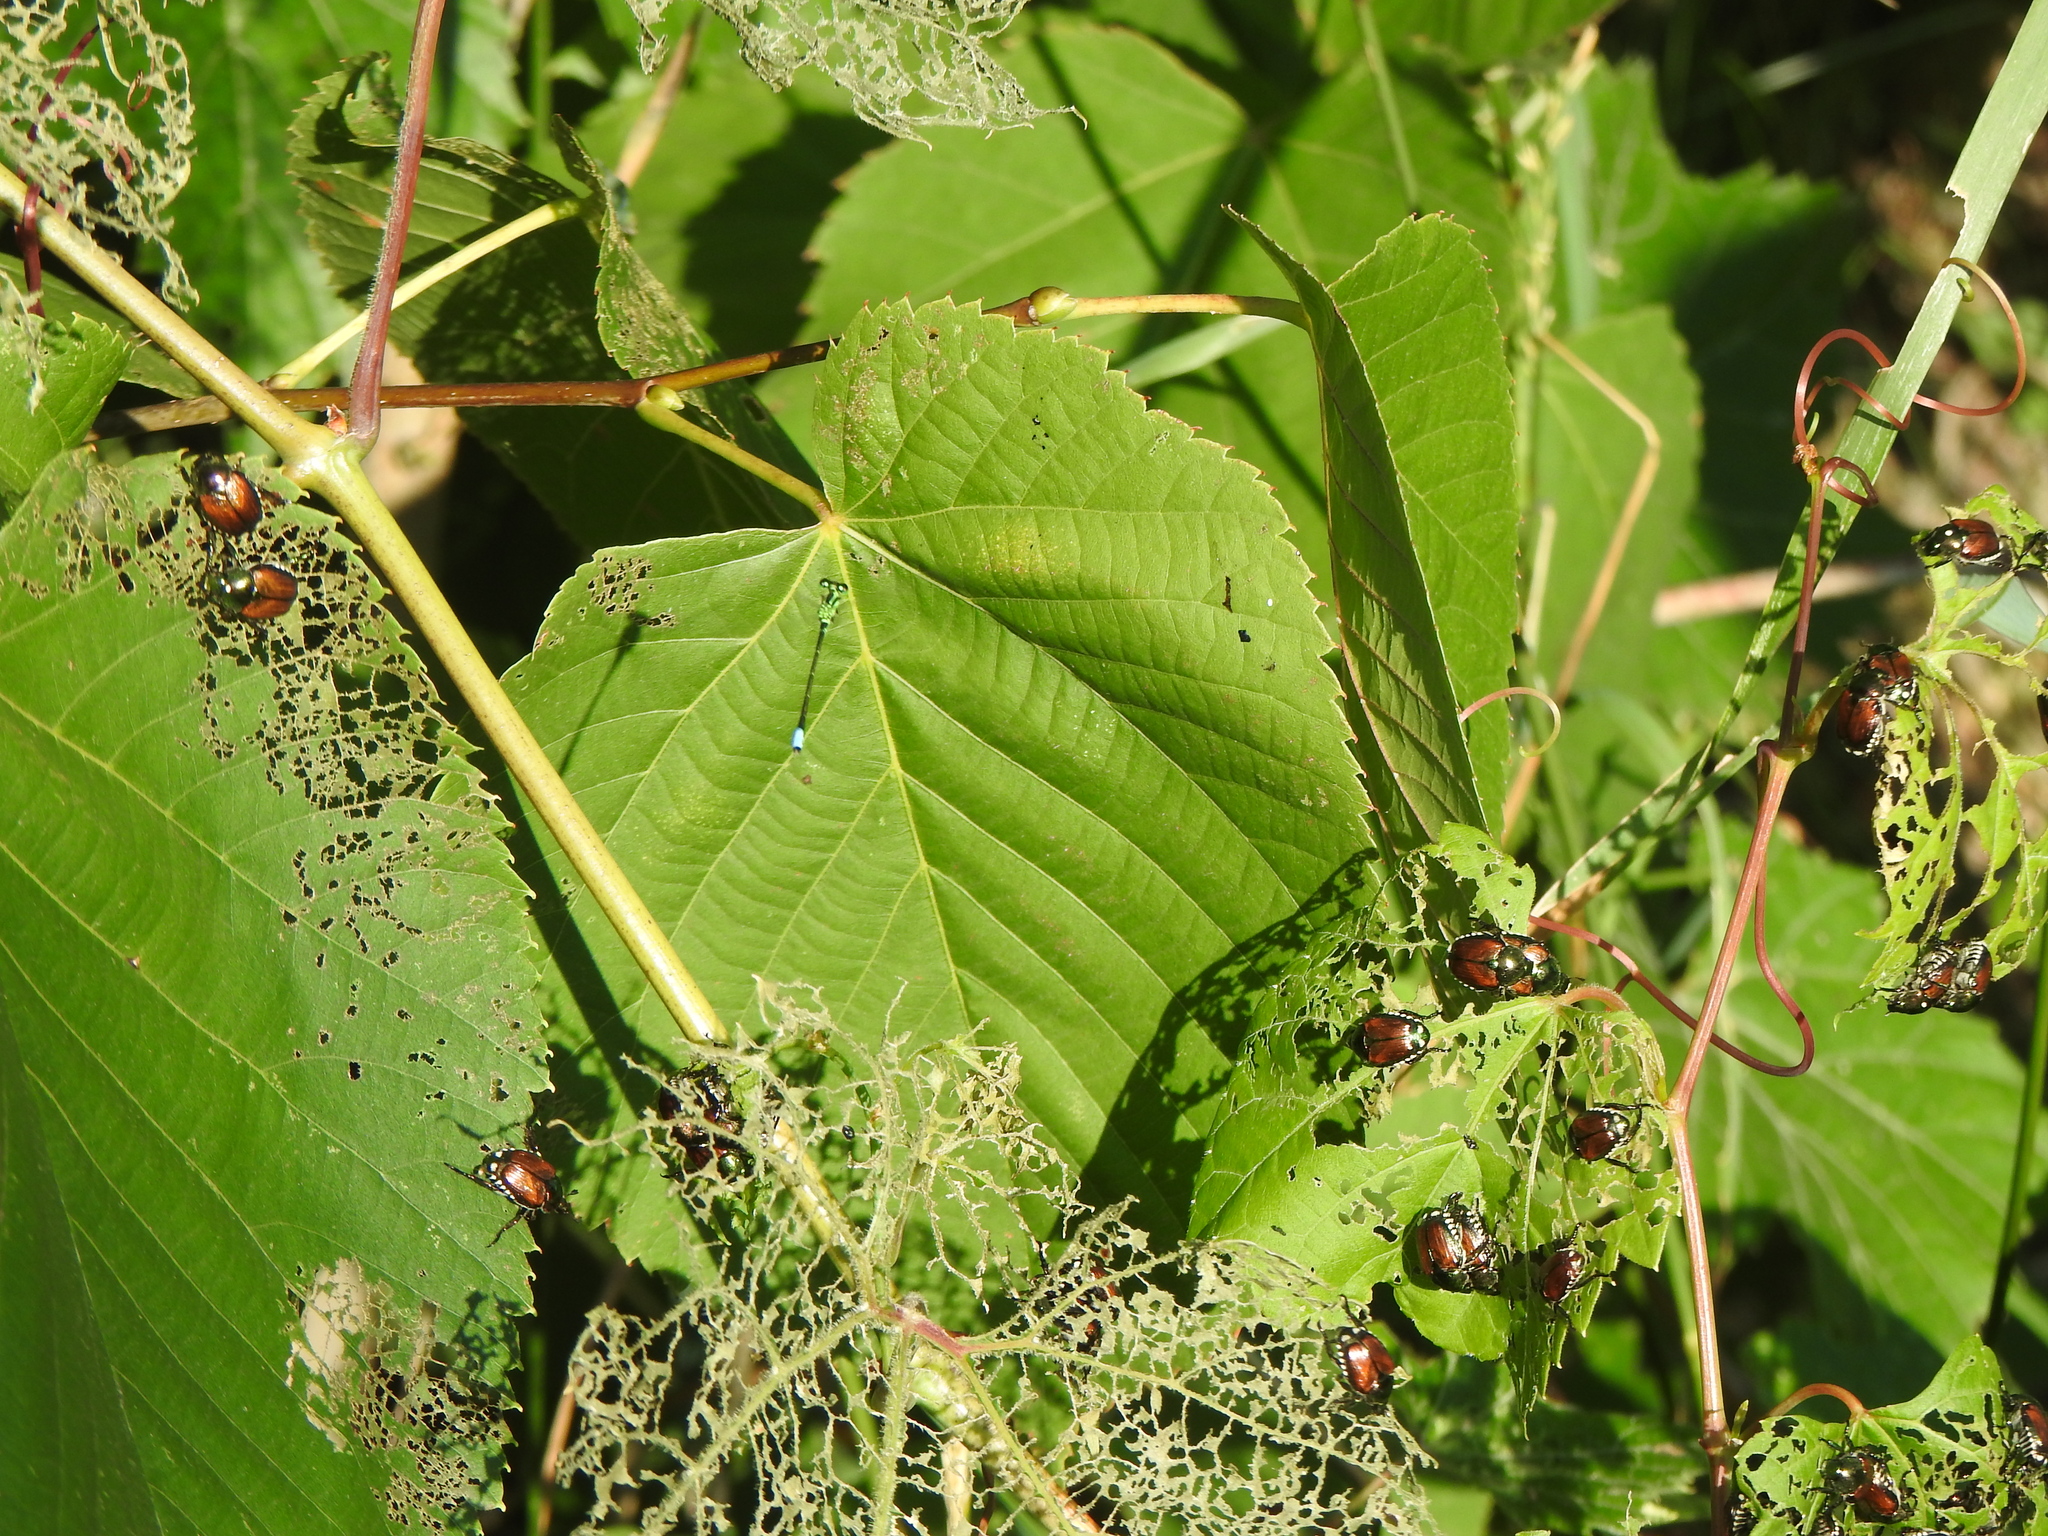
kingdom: Animalia
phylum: Arthropoda
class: Insecta
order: Coleoptera
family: Scarabaeidae
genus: Popillia
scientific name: Popillia japonica
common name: Japanese beetle
